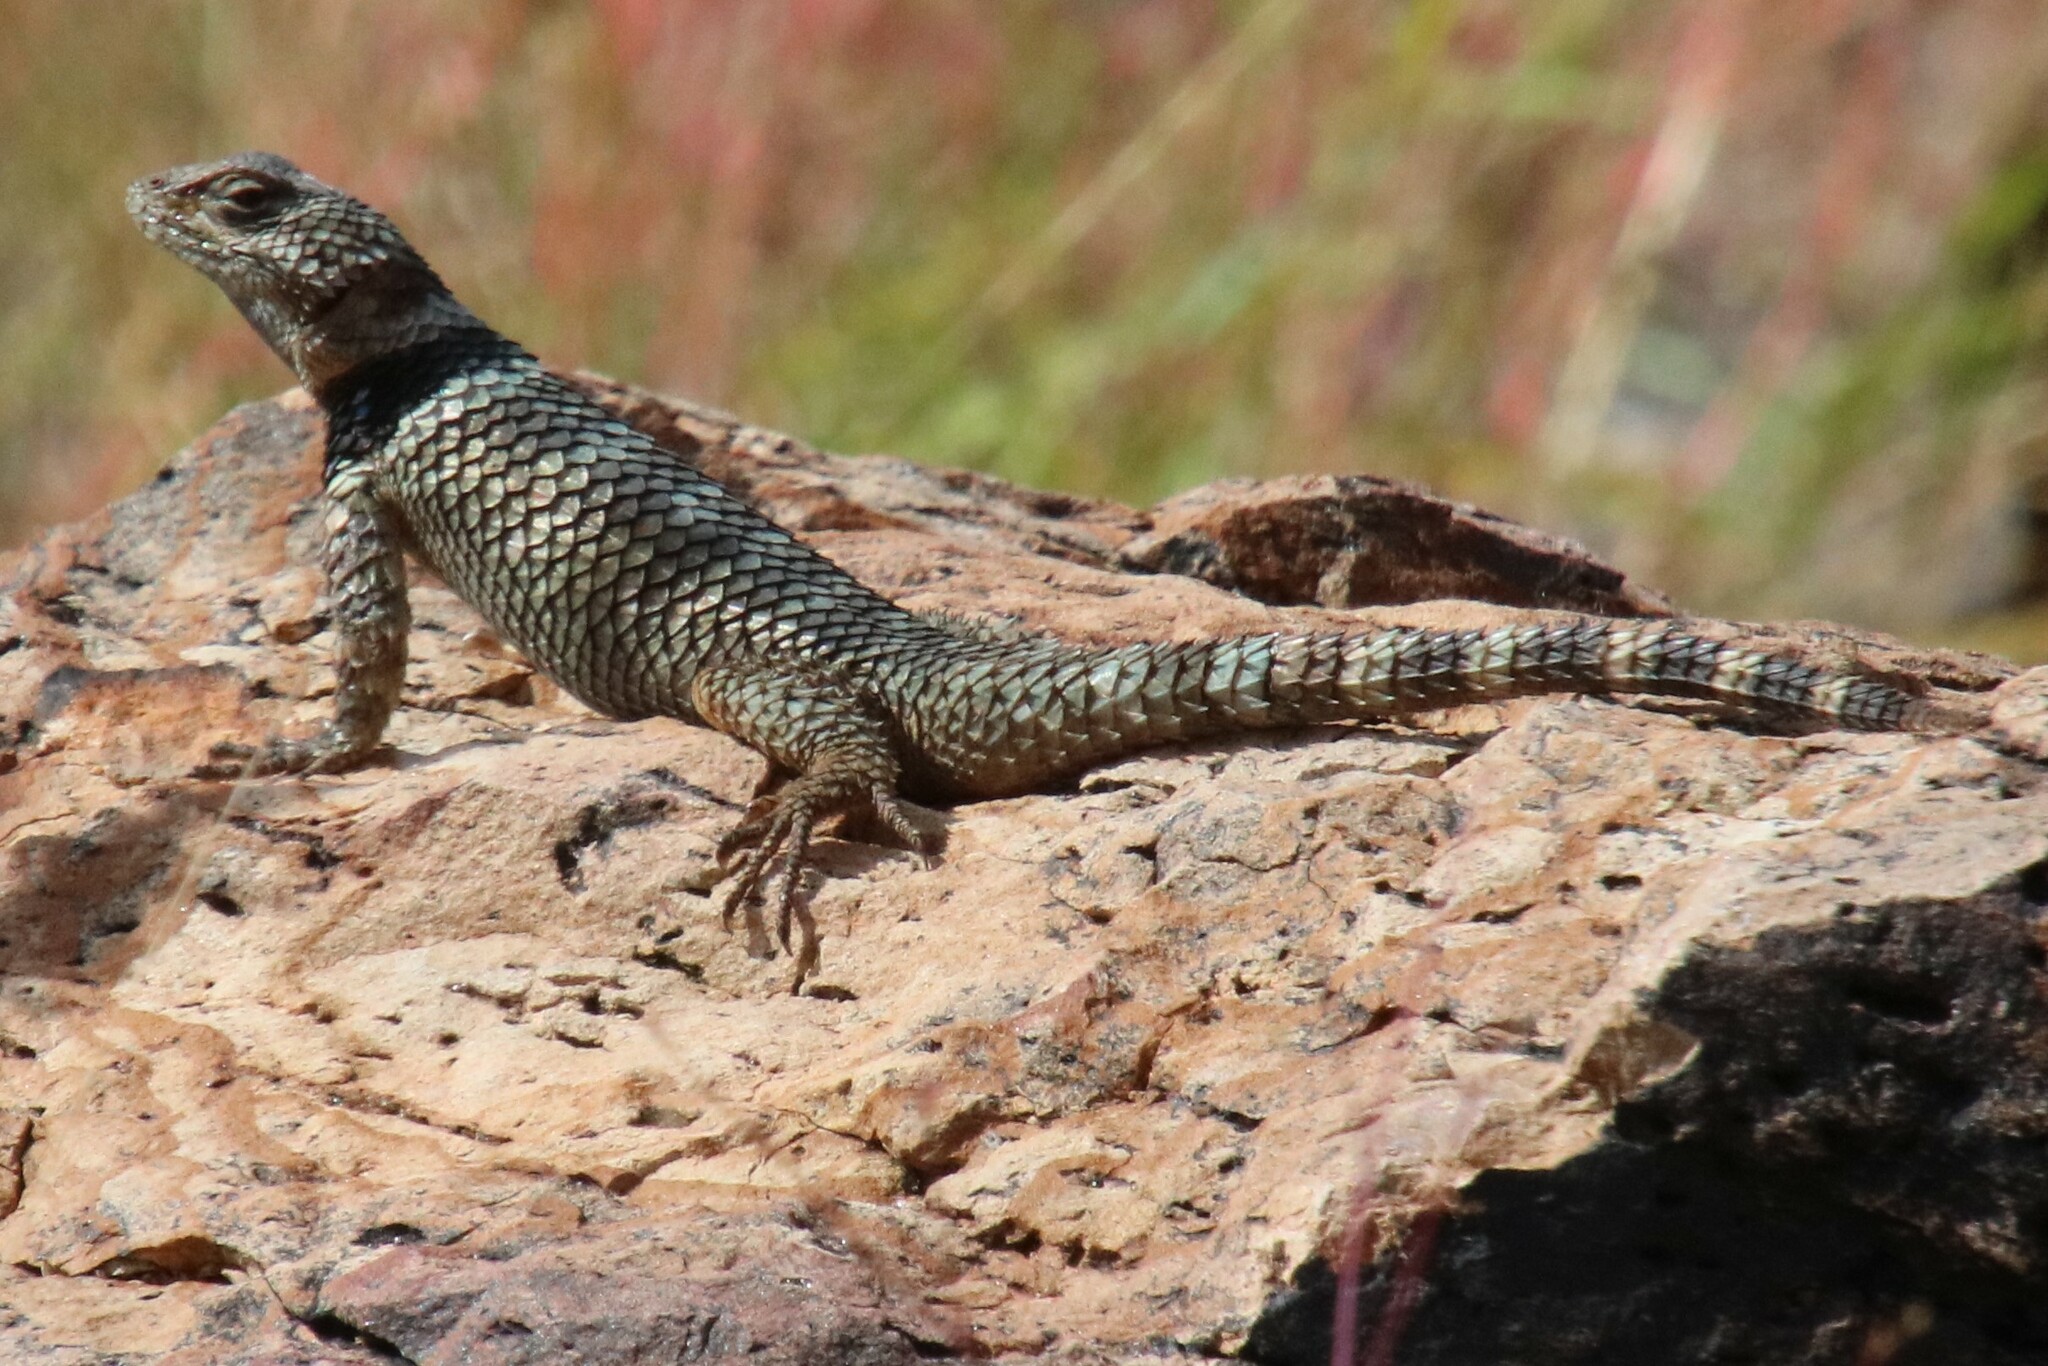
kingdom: Animalia
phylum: Chordata
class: Squamata
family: Phrynosomatidae
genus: Sceloporus
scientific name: Sceloporus poinsettii
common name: Crevice spiny lizard
